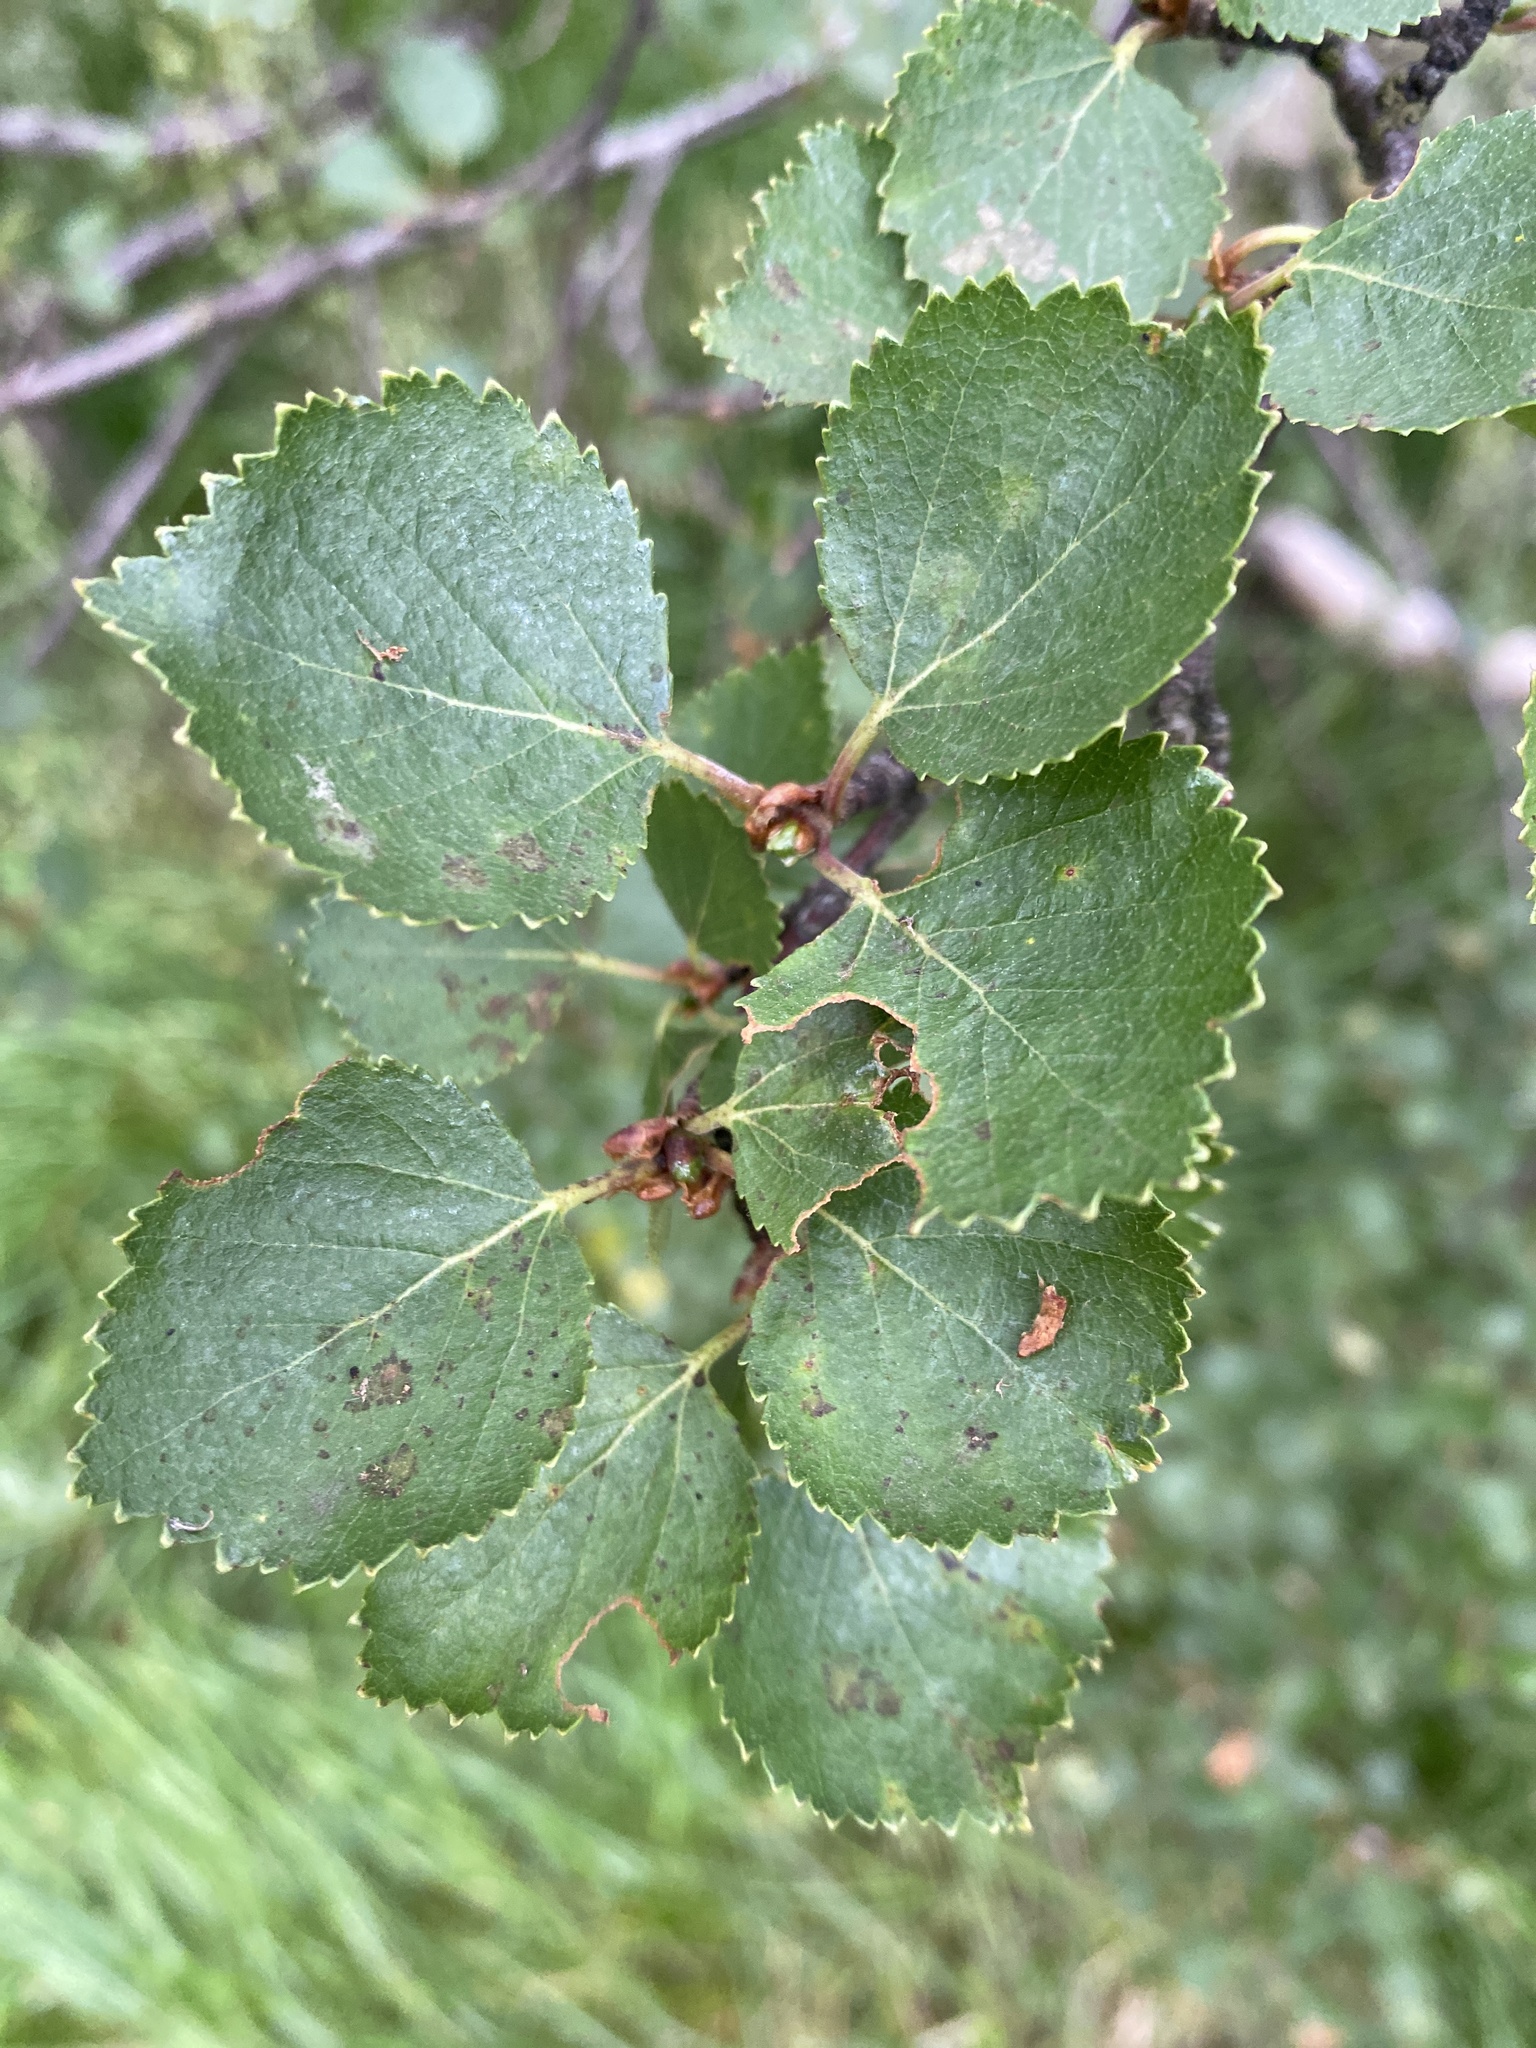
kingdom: Plantae
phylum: Tracheophyta
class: Magnoliopsida
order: Fagales
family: Betulaceae
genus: Betula
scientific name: Betula pubescens
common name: Downy birch
